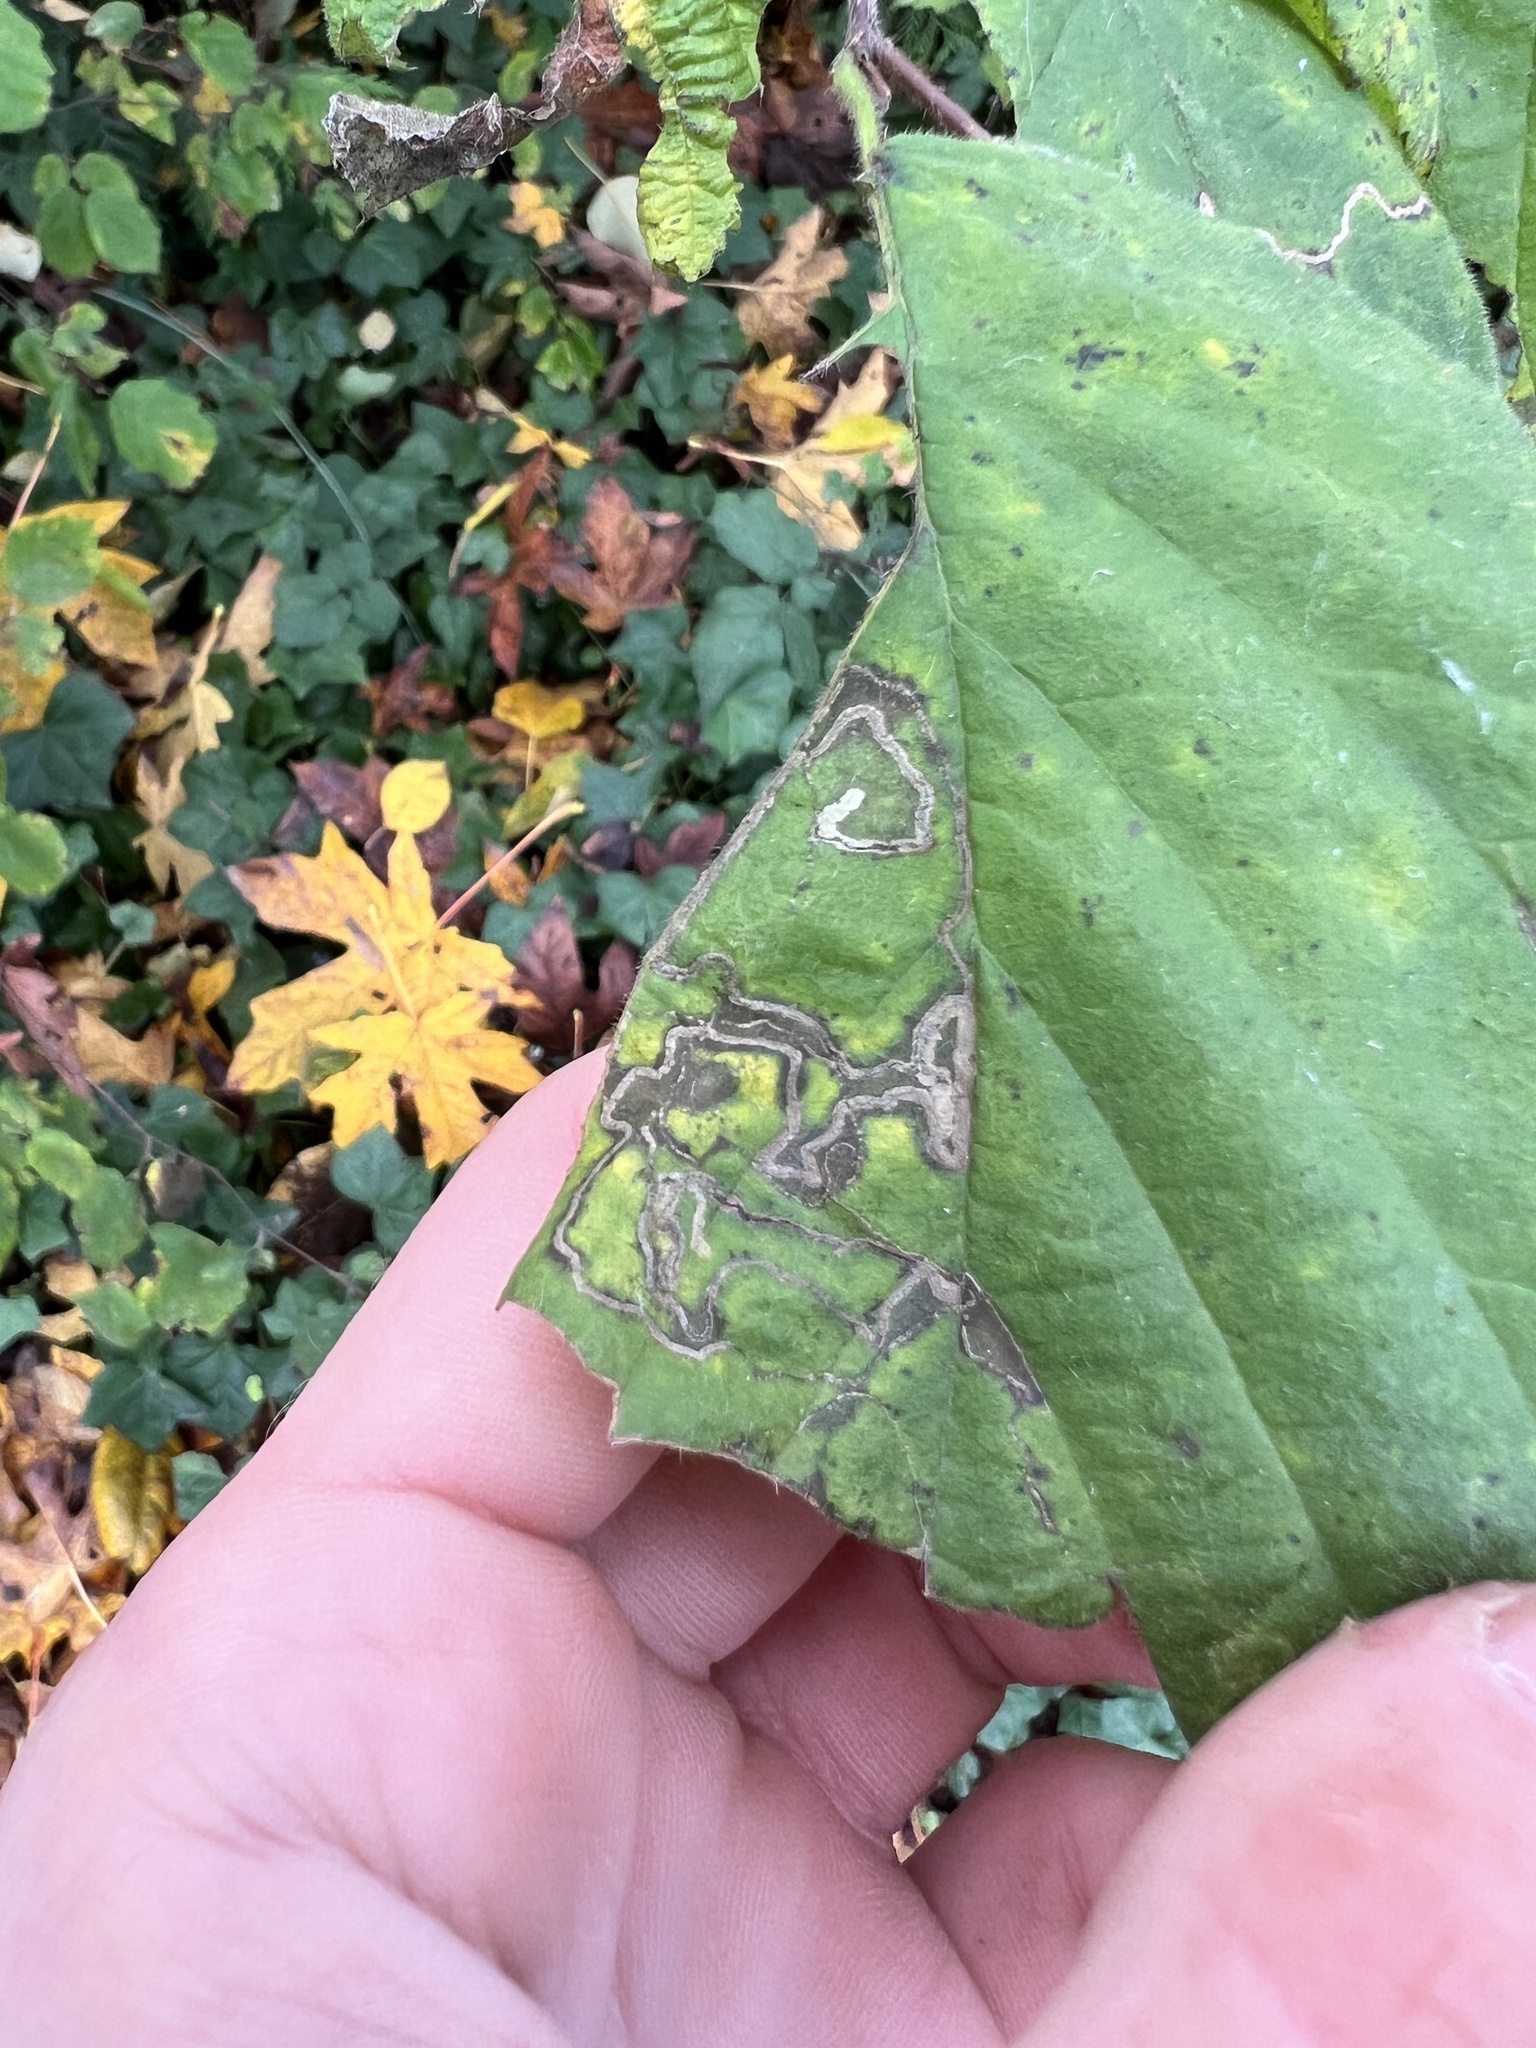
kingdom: Animalia
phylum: Arthropoda
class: Insecta
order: Lepidoptera
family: Nepticulidae
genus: Stigmella
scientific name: Stigmella microtheriella
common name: Nut-tree pigmy
